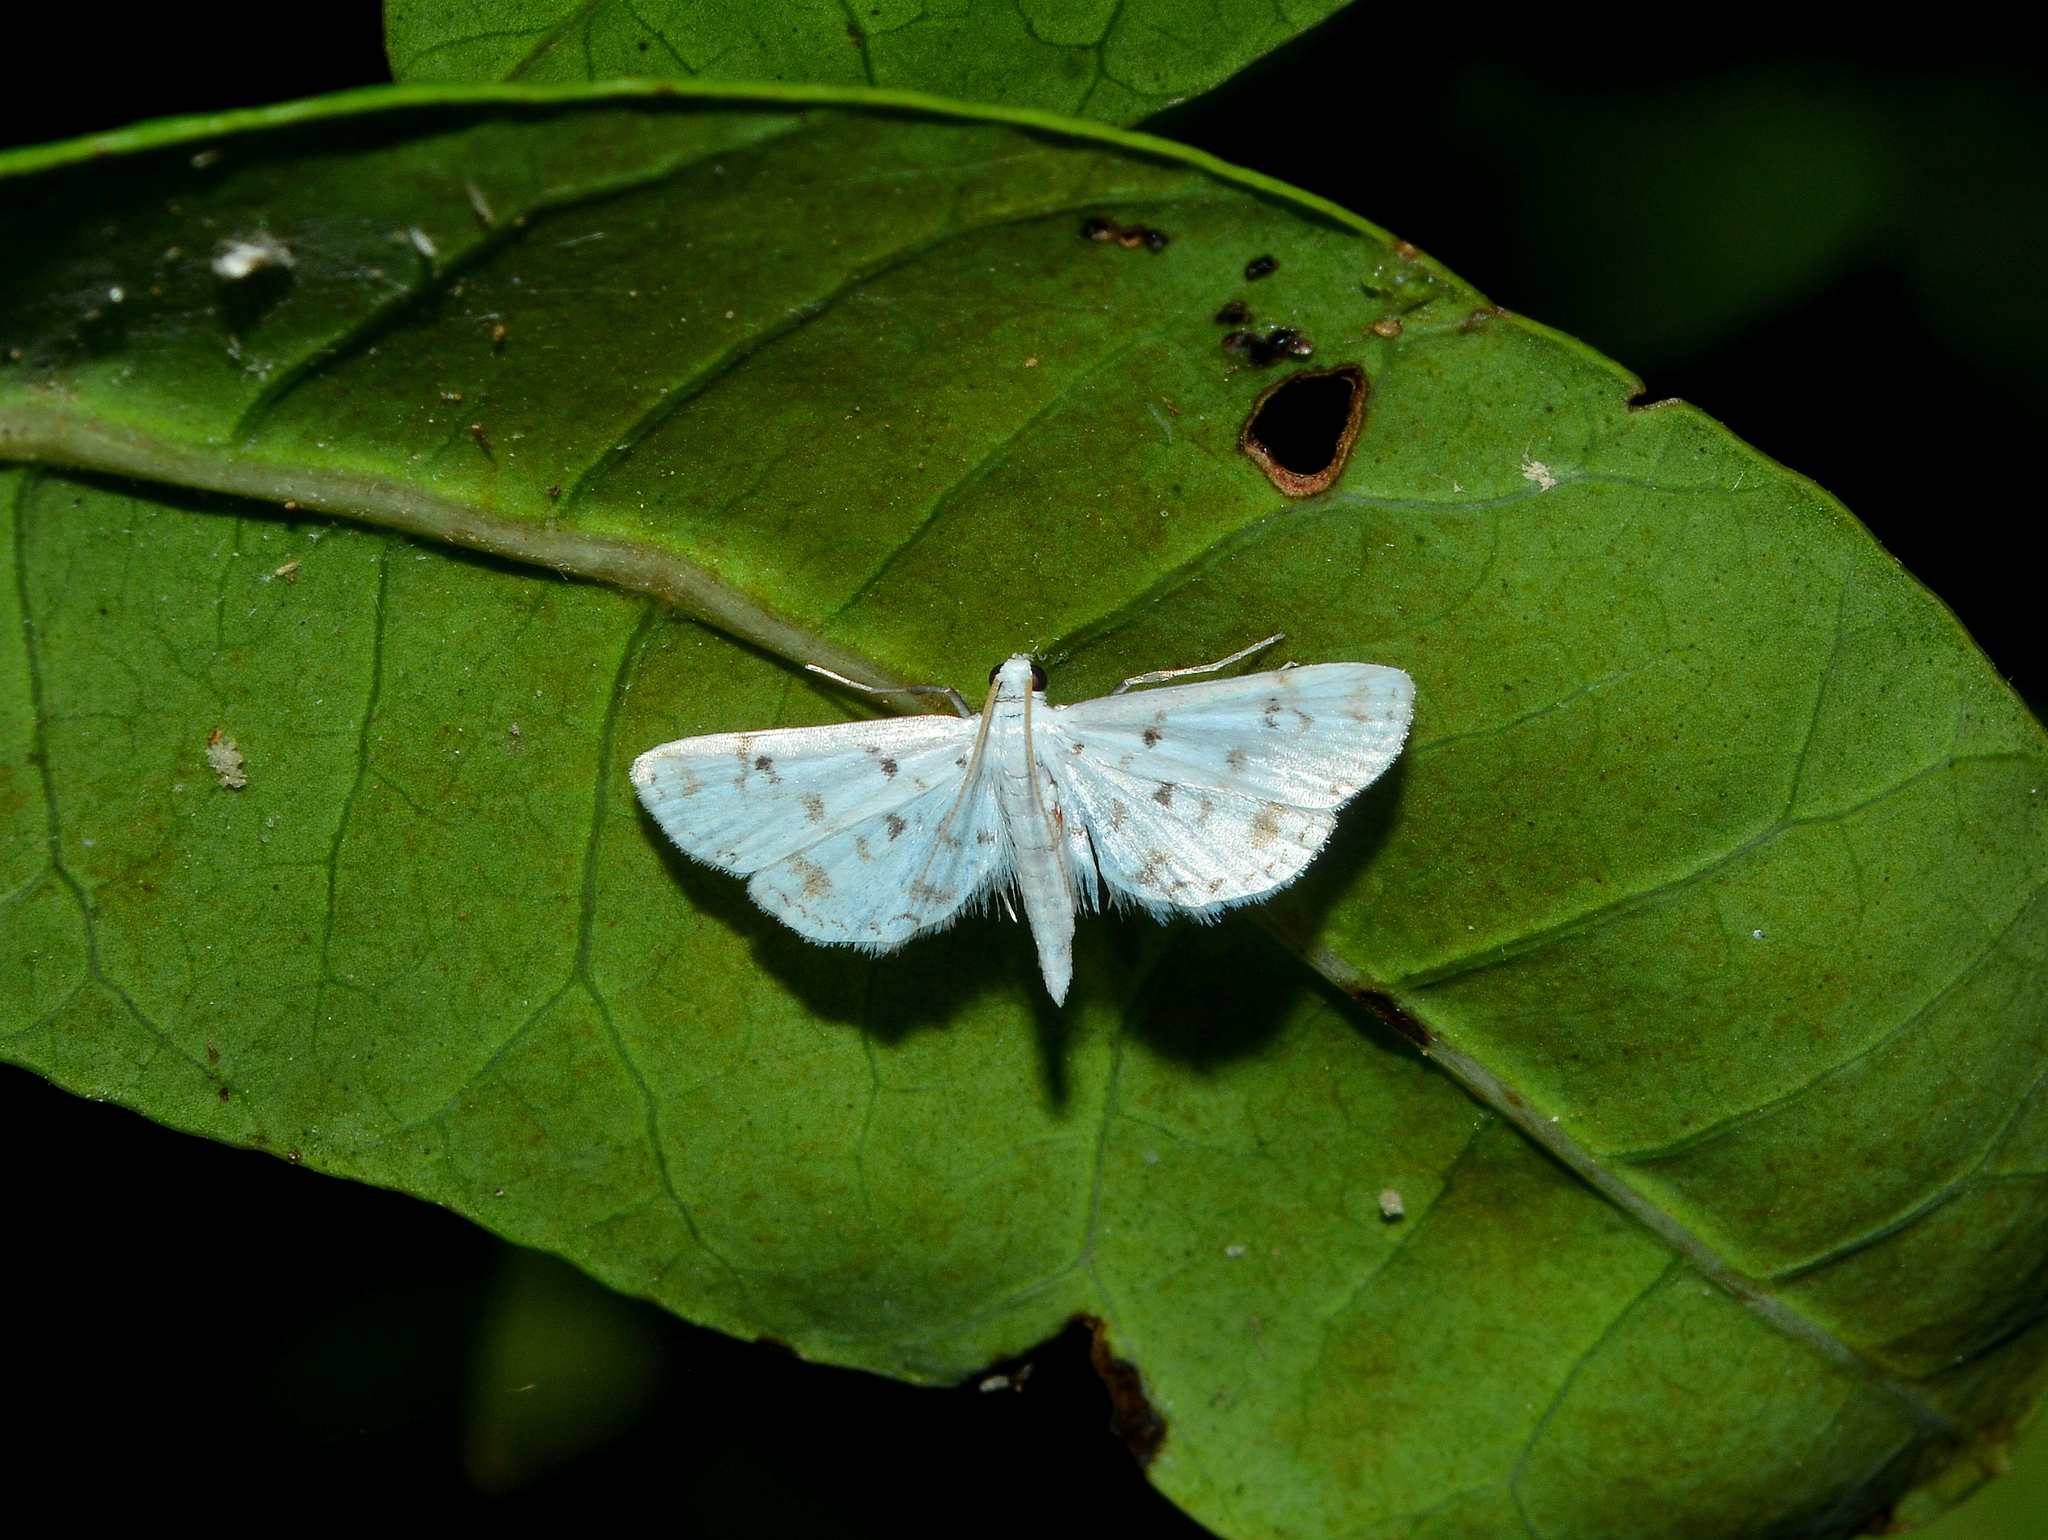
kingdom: Animalia
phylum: Arthropoda
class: Insecta
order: Lepidoptera
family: Crambidae
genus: Parapoynx
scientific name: Parapoynx stagnalis
